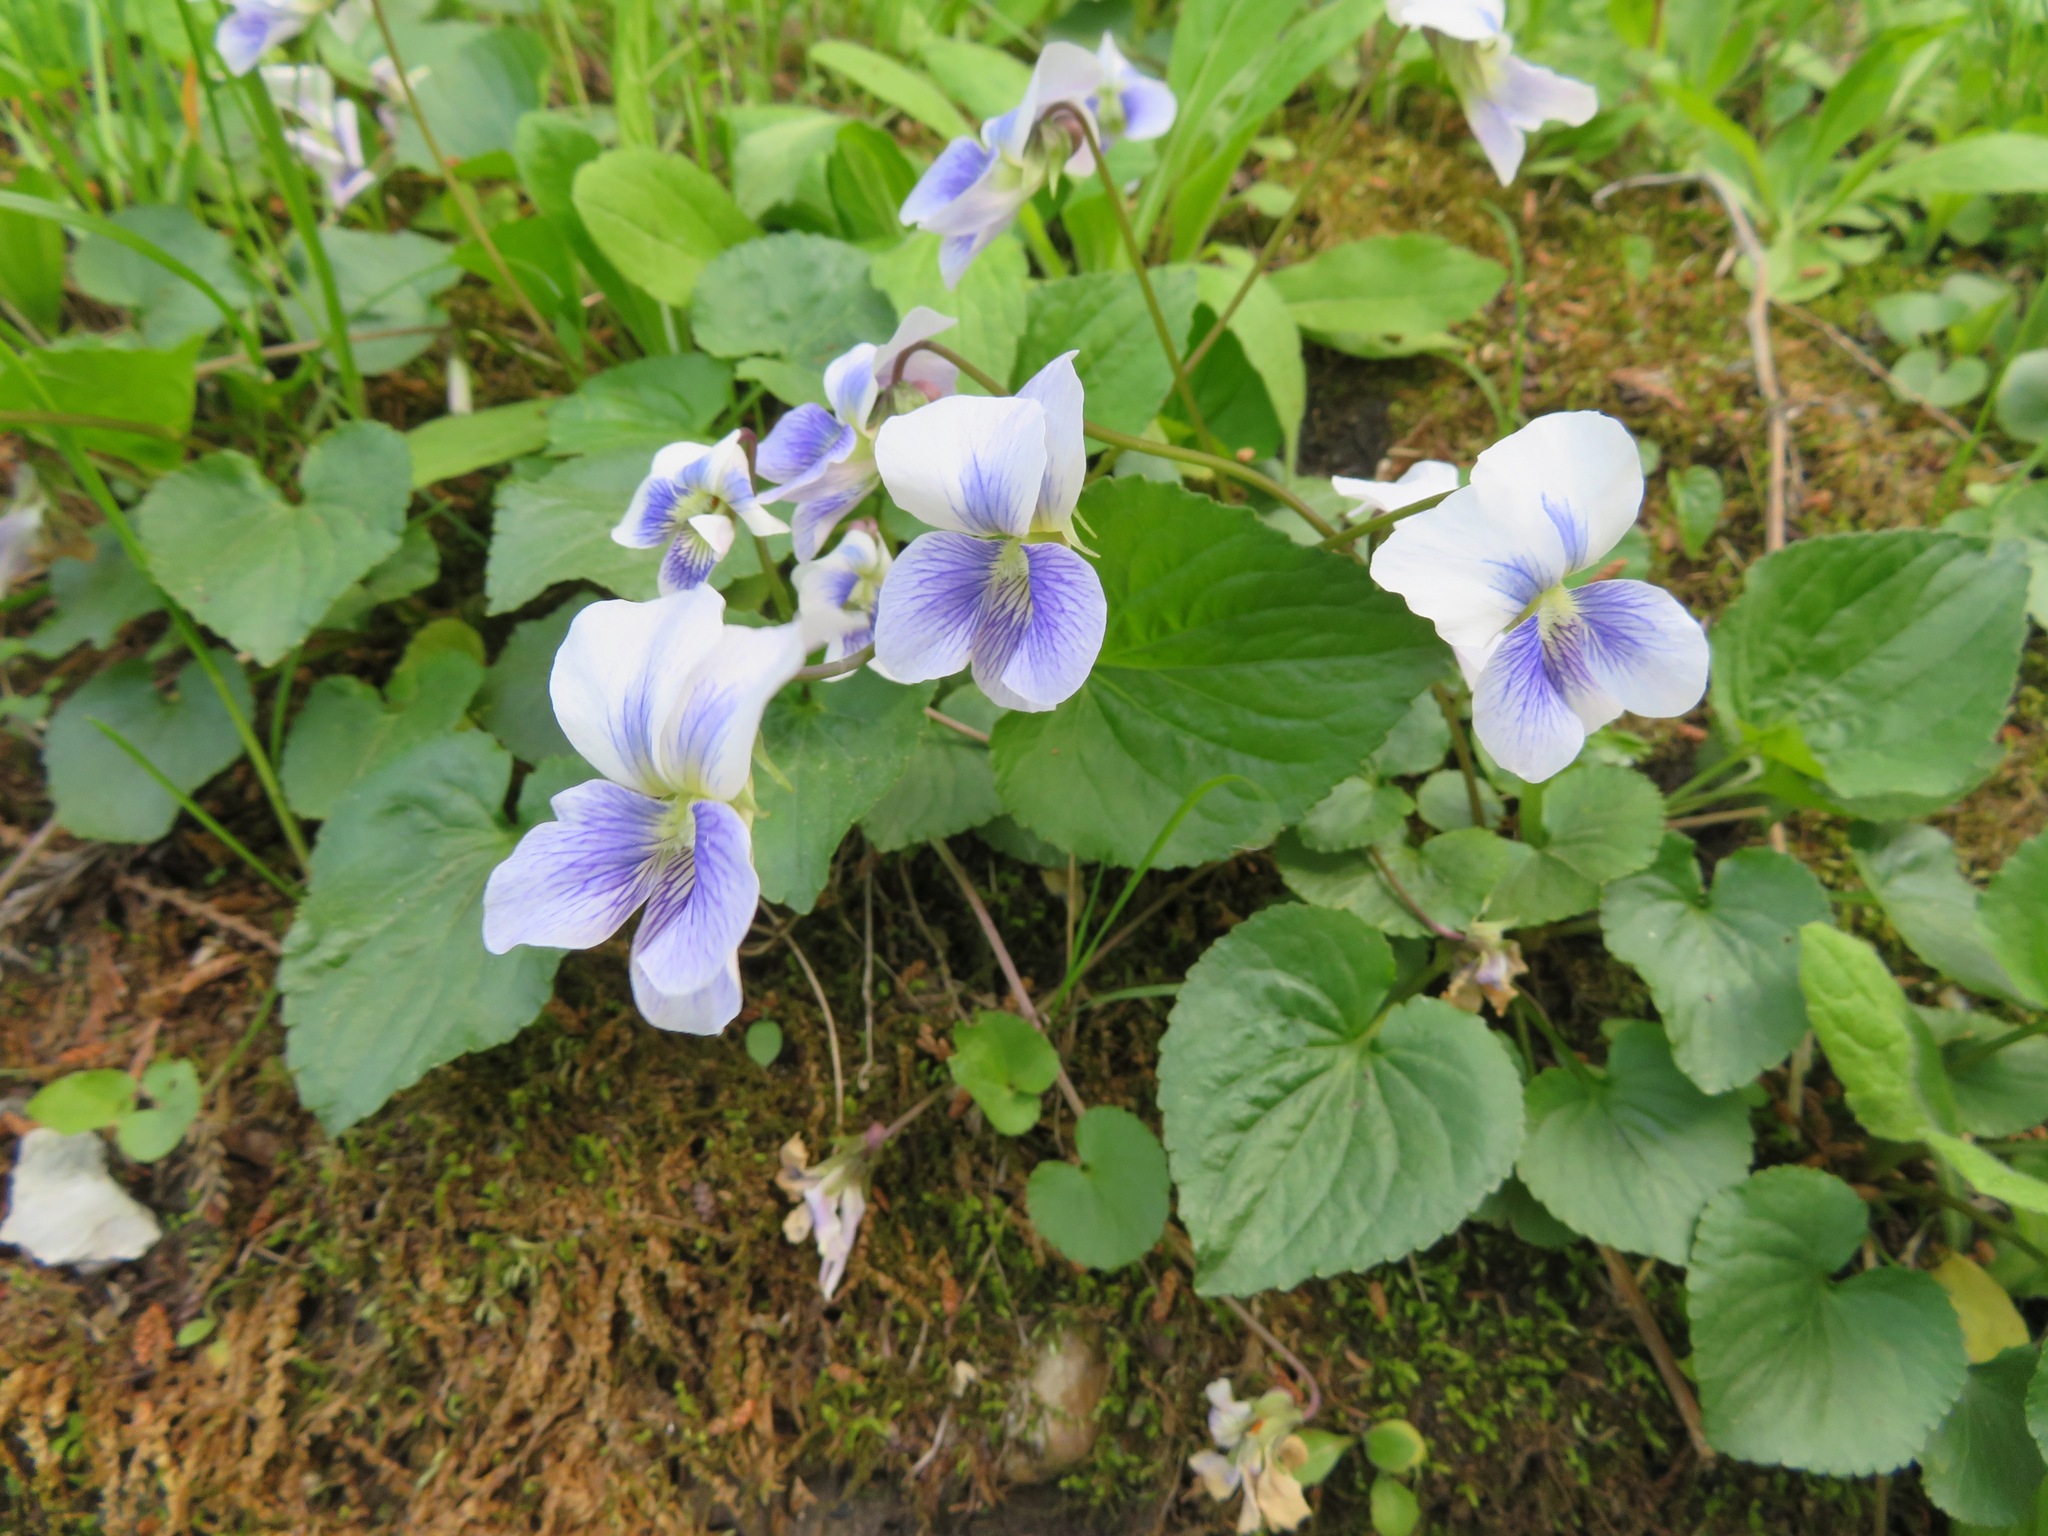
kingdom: Plantae
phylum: Tracheophyta
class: Magnoliopsida
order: Malpighiales
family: Violaceae
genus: Viola
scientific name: Viola sororia
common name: Dooryard violet
